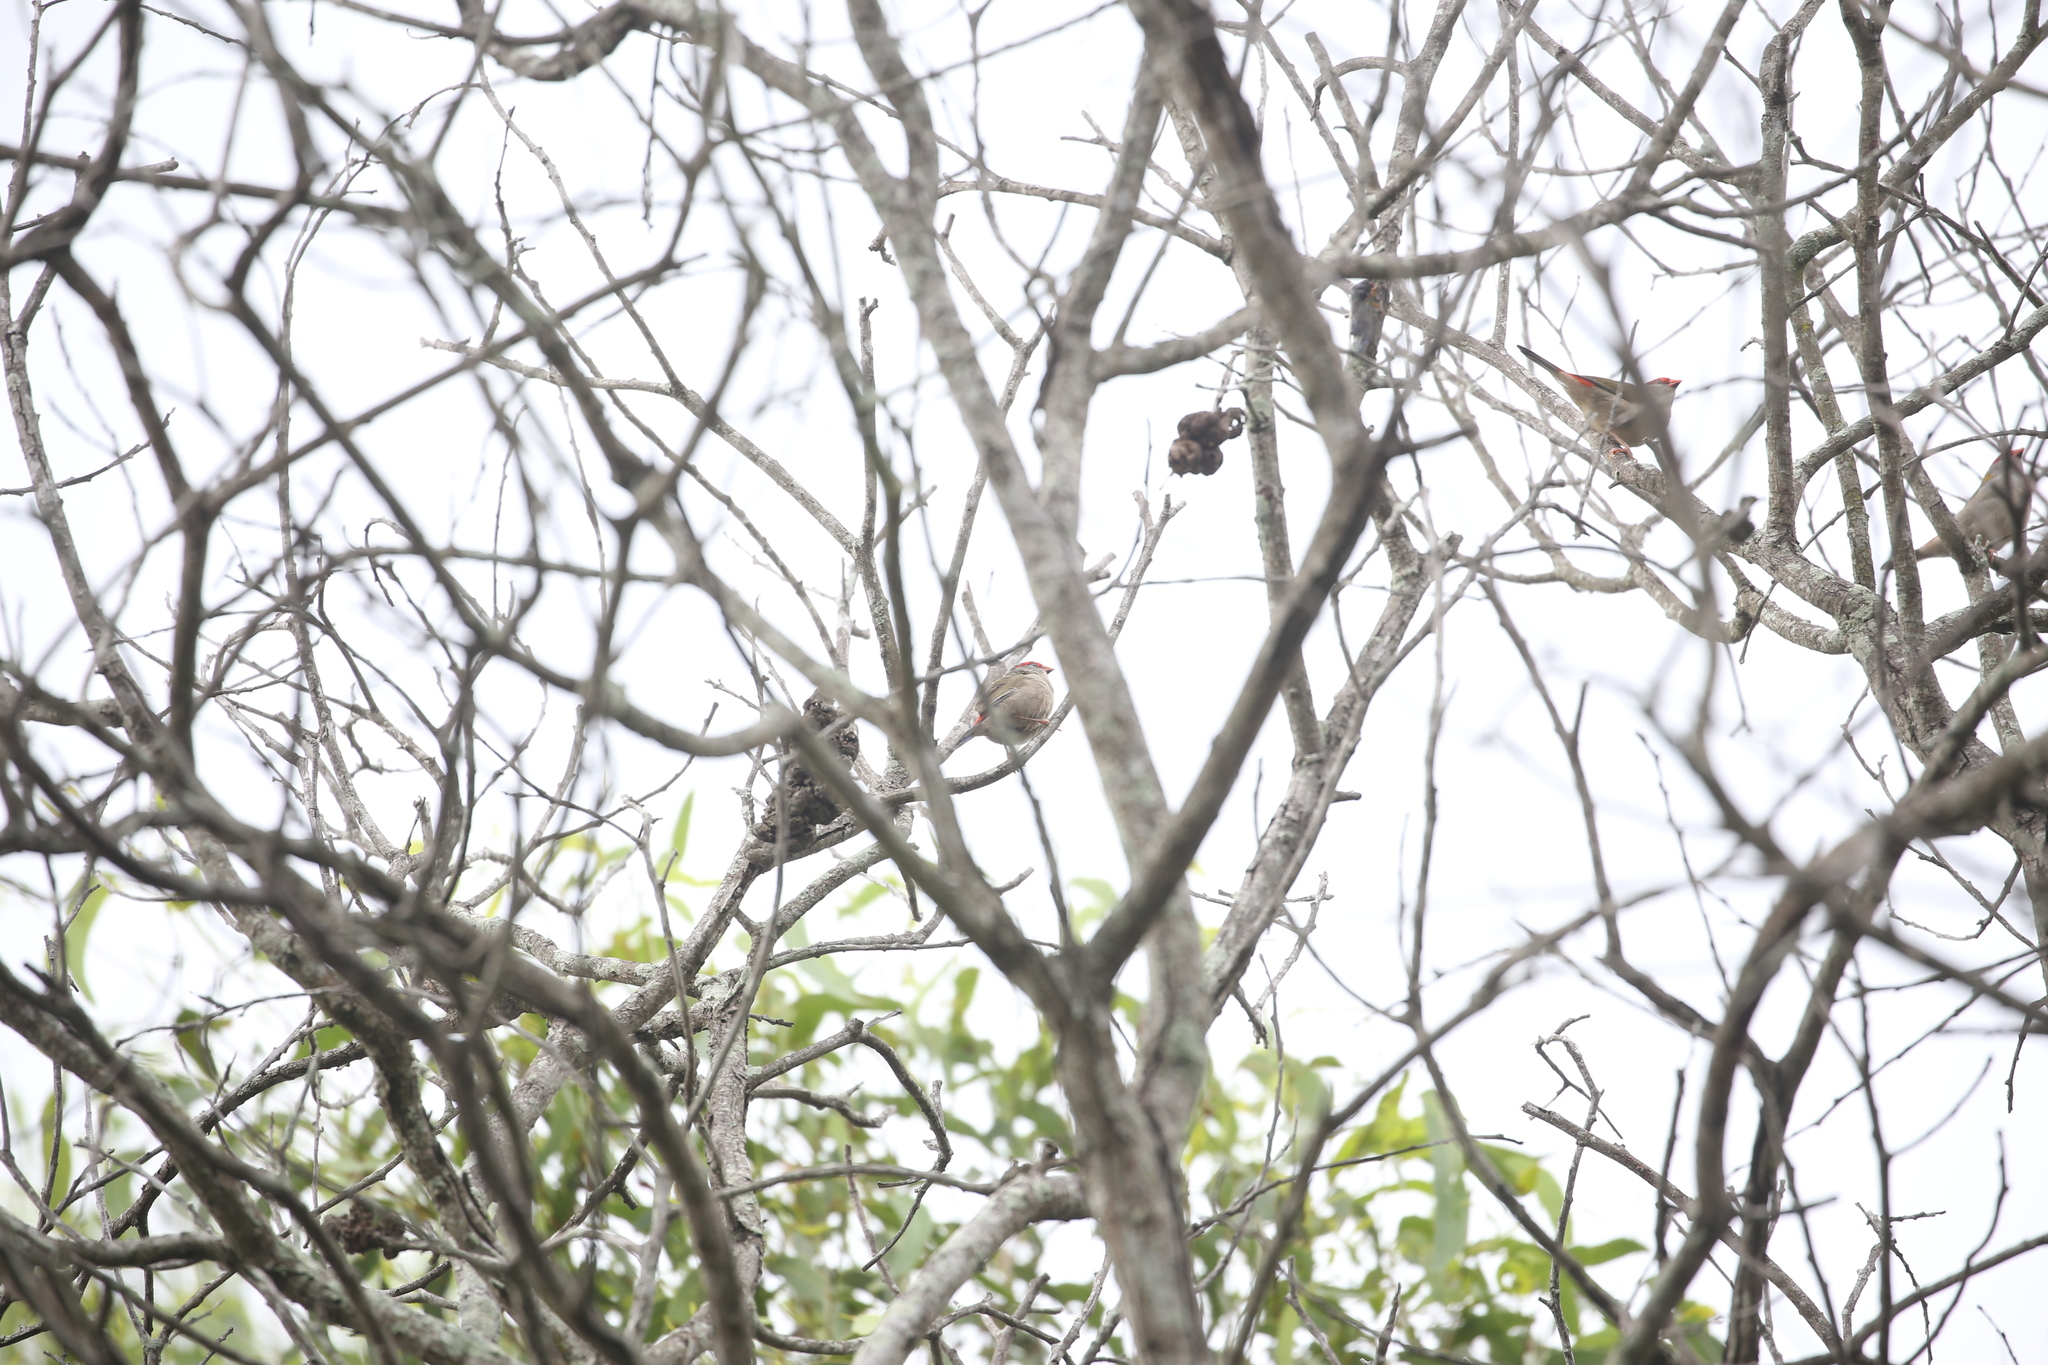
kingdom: Animalia
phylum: Chordata
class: Aves
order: Passeriformes
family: Estrildidae
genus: Neochmia
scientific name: Neochmia temporalis
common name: Red-browed finch
